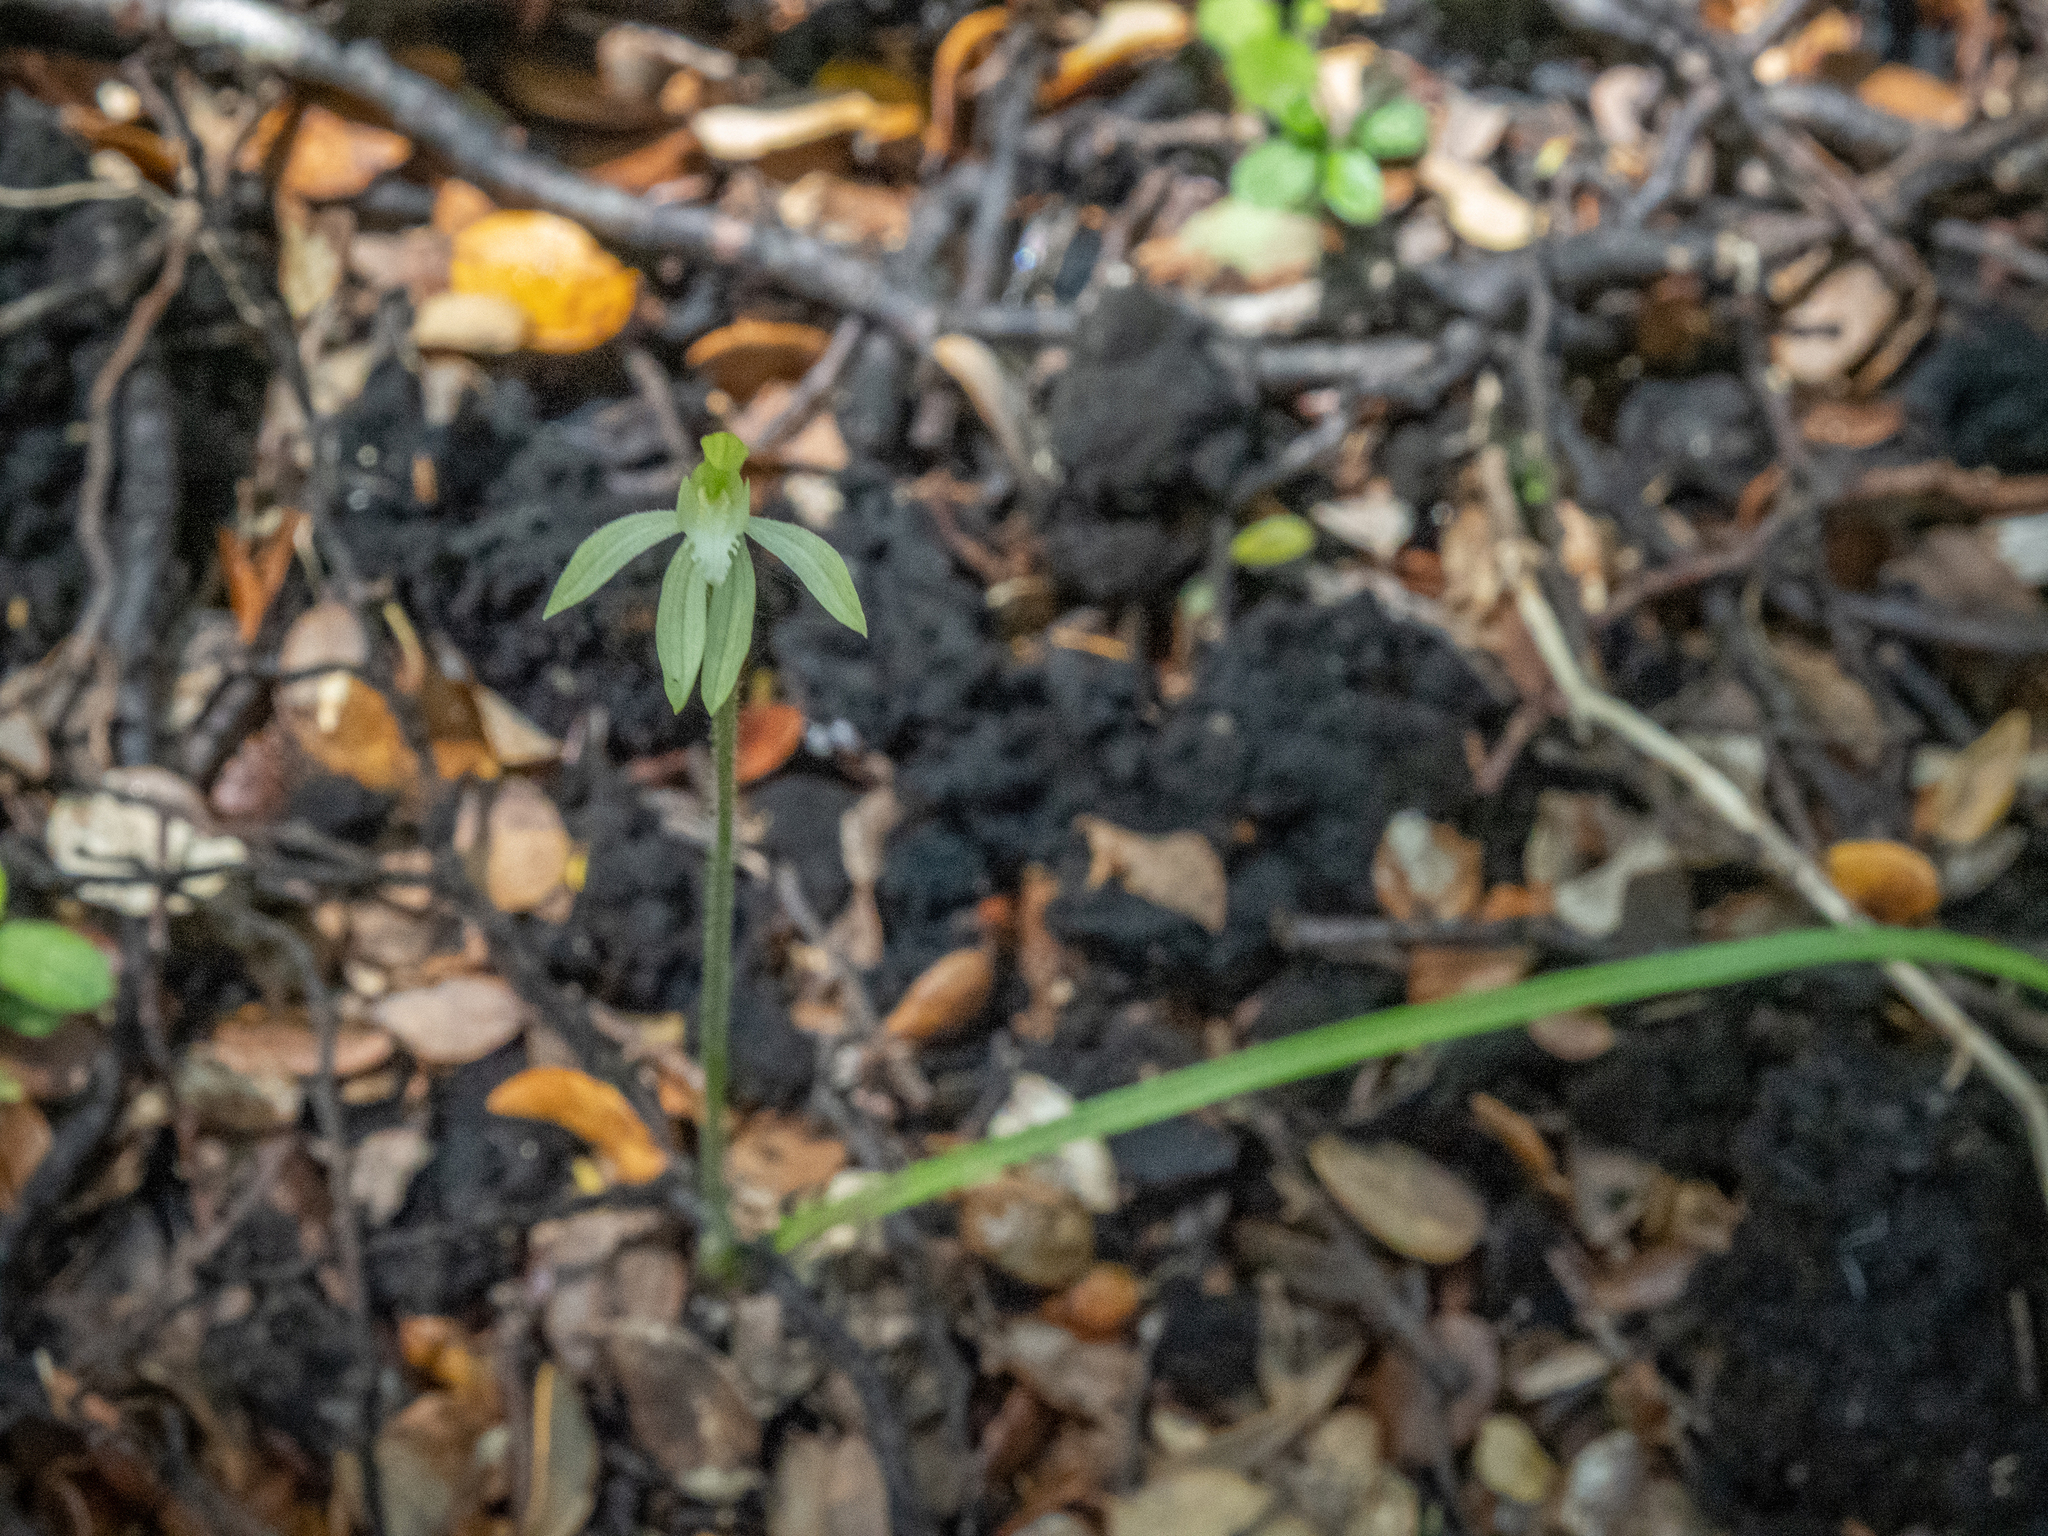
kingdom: Plantae
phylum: Tracheophyta
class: Liliopsida
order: Asparagales
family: Orchidaceae
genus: Caladenia
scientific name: Caladenia nothofageti
